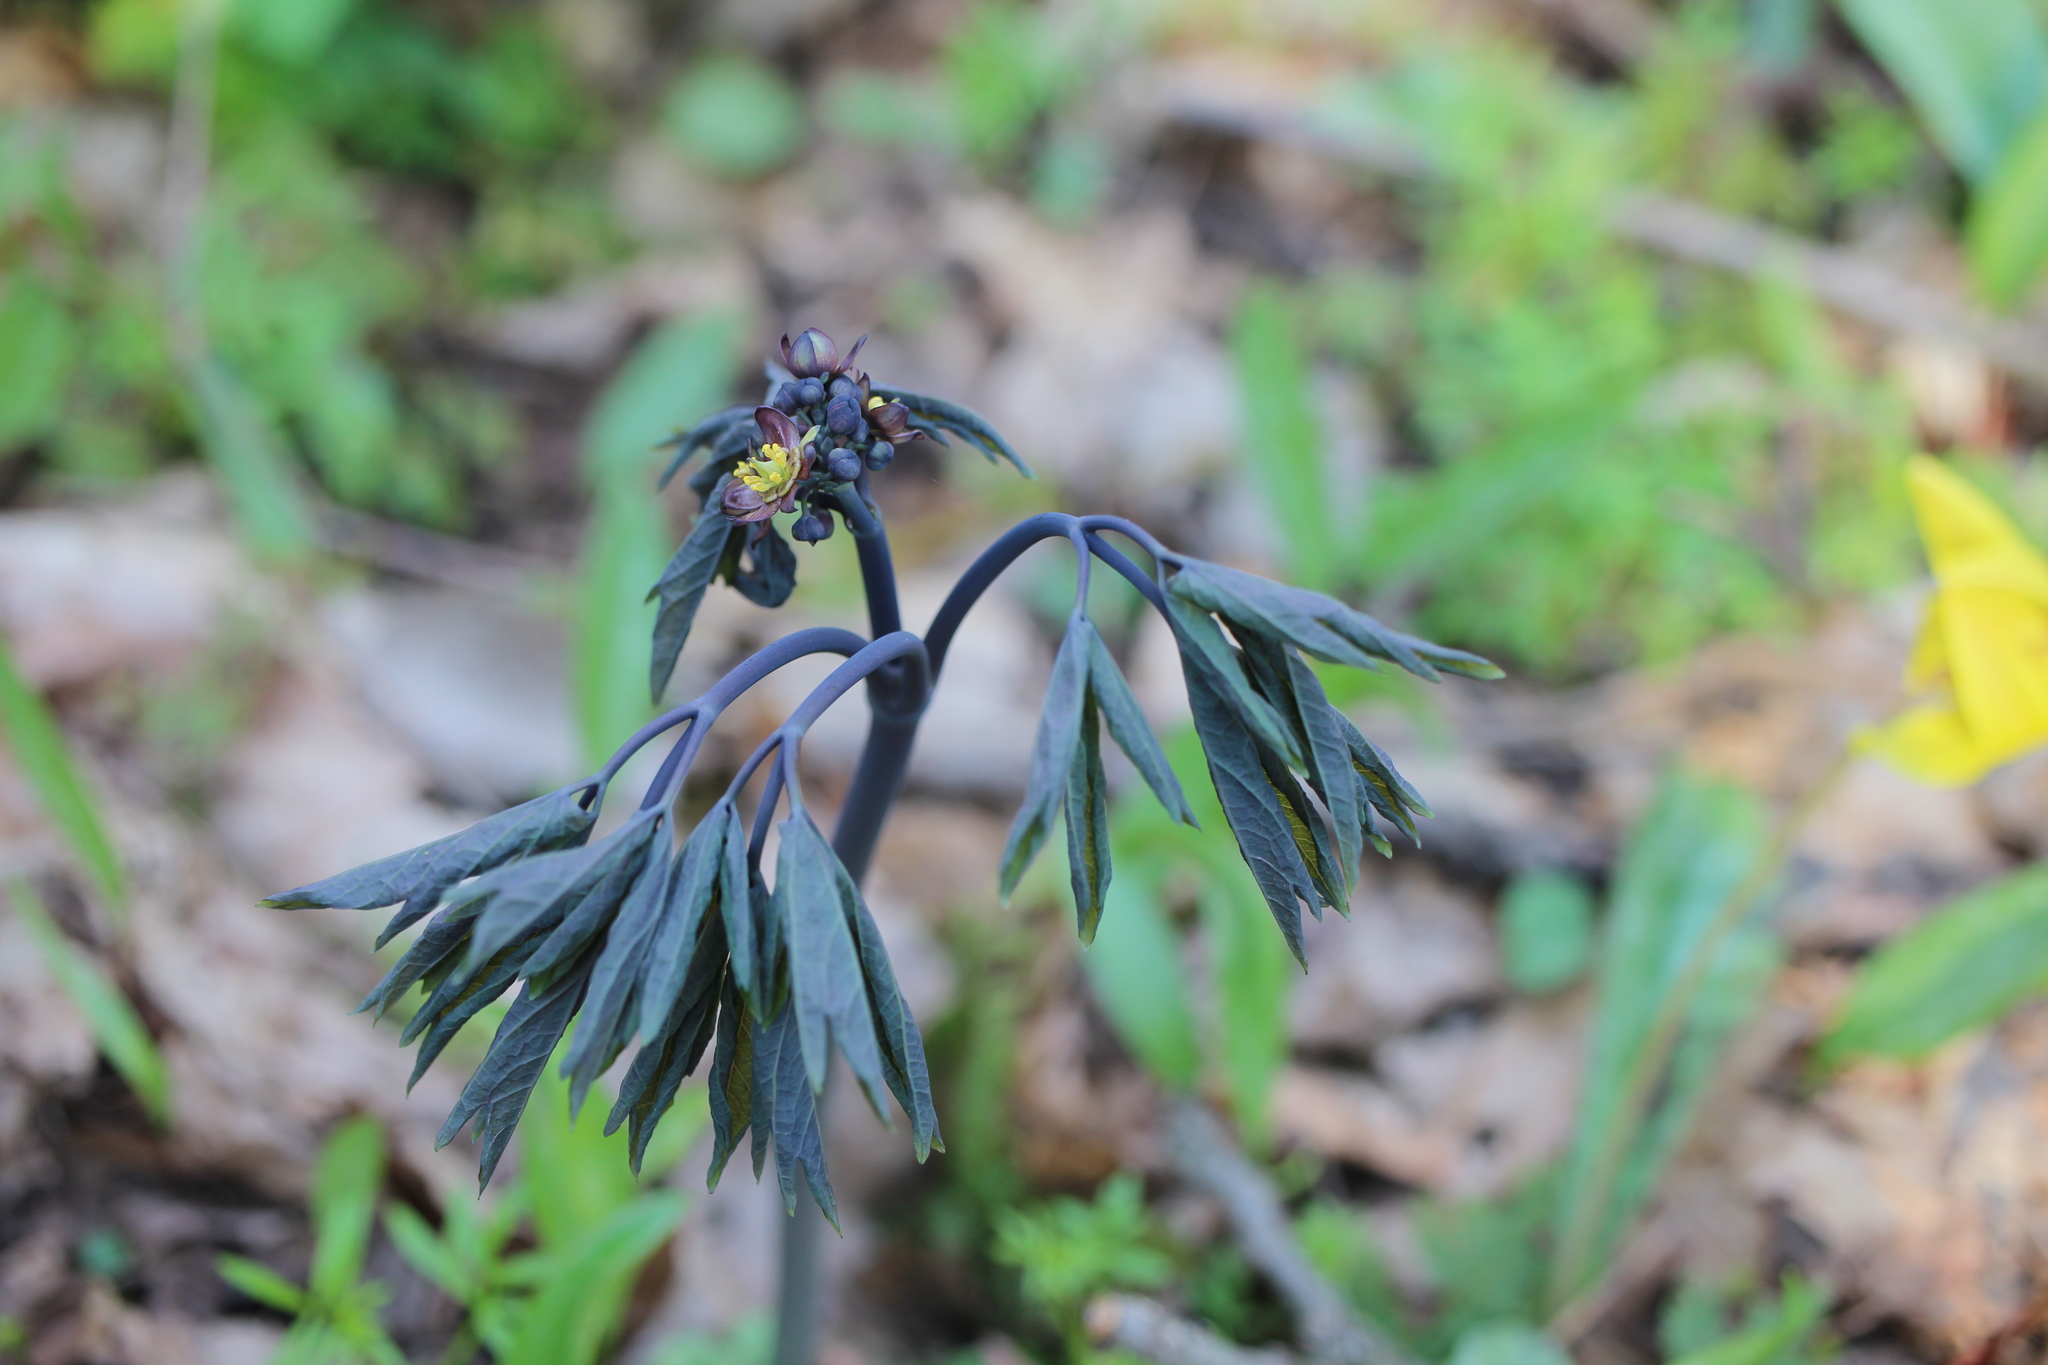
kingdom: Plantae
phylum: Tracheophyta
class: Magnoliopsida
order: Ranunculales
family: Berberidaceae
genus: Caulophyllum
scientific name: Caulophyllum giganteum
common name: Blue cohosh
